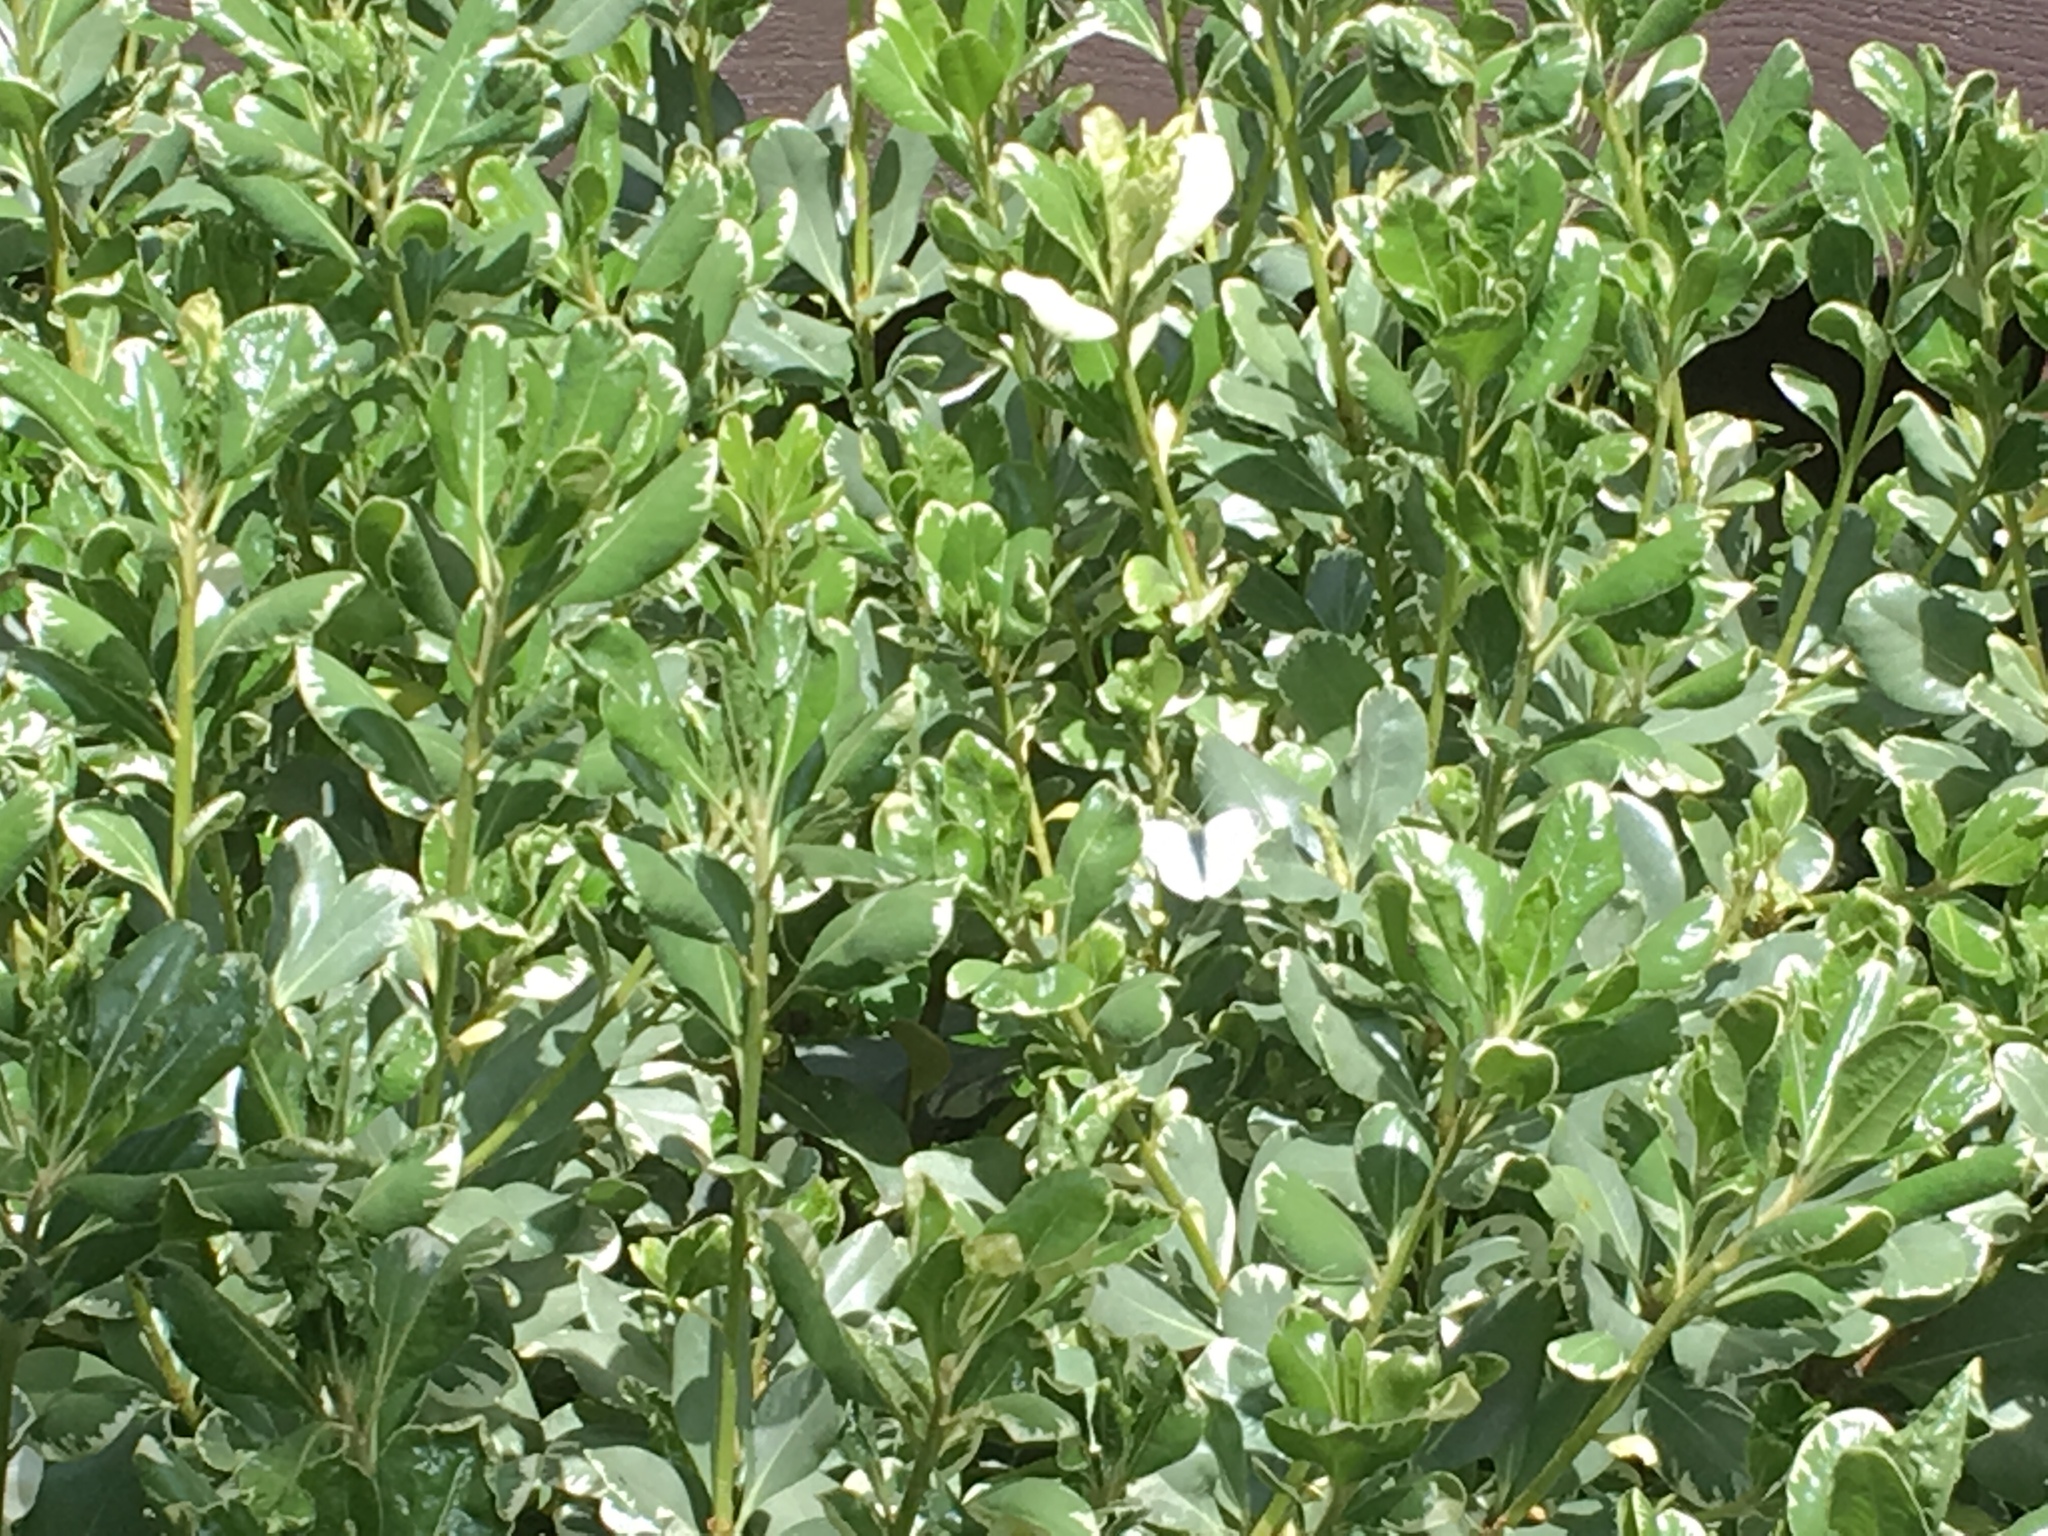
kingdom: Animalia
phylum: Arthropoda
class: Insecta
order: Lepidoptera
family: Pieridae
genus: Pieris
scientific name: Pieris rapae
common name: Small white
